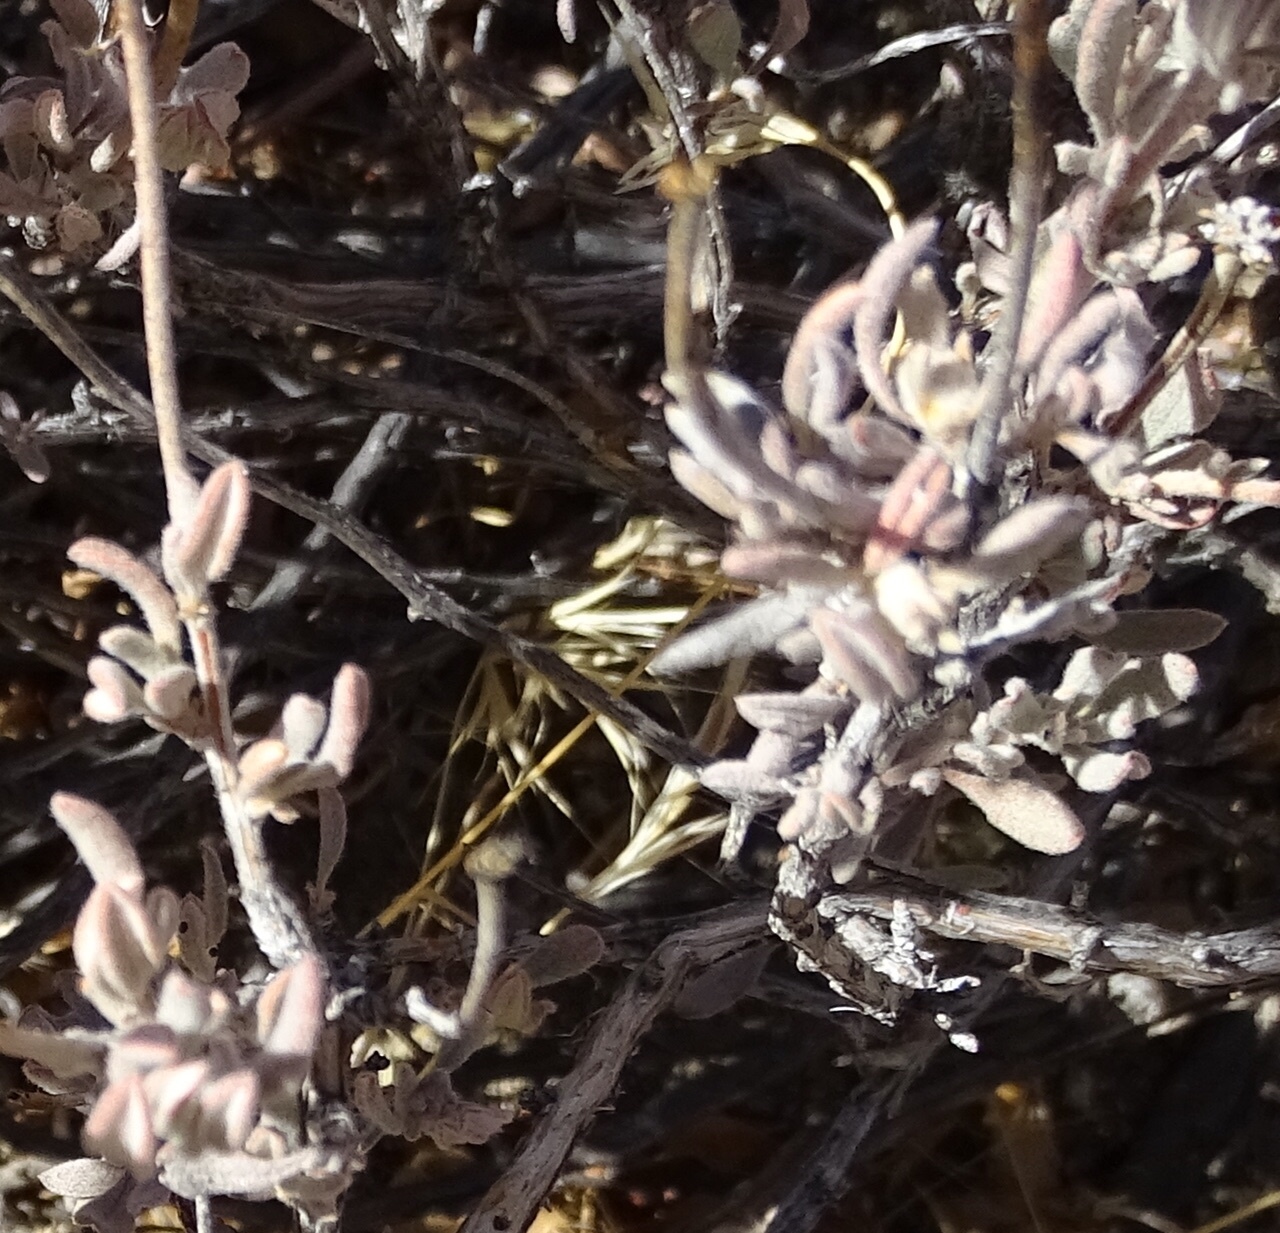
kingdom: Plantae
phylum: Tracheophyta
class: Magnoliopsida
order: Caryophyllales
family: Polygonaceae
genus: Eriogonum
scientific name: Eriogonum fasciculatum
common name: California wild buckwheat
